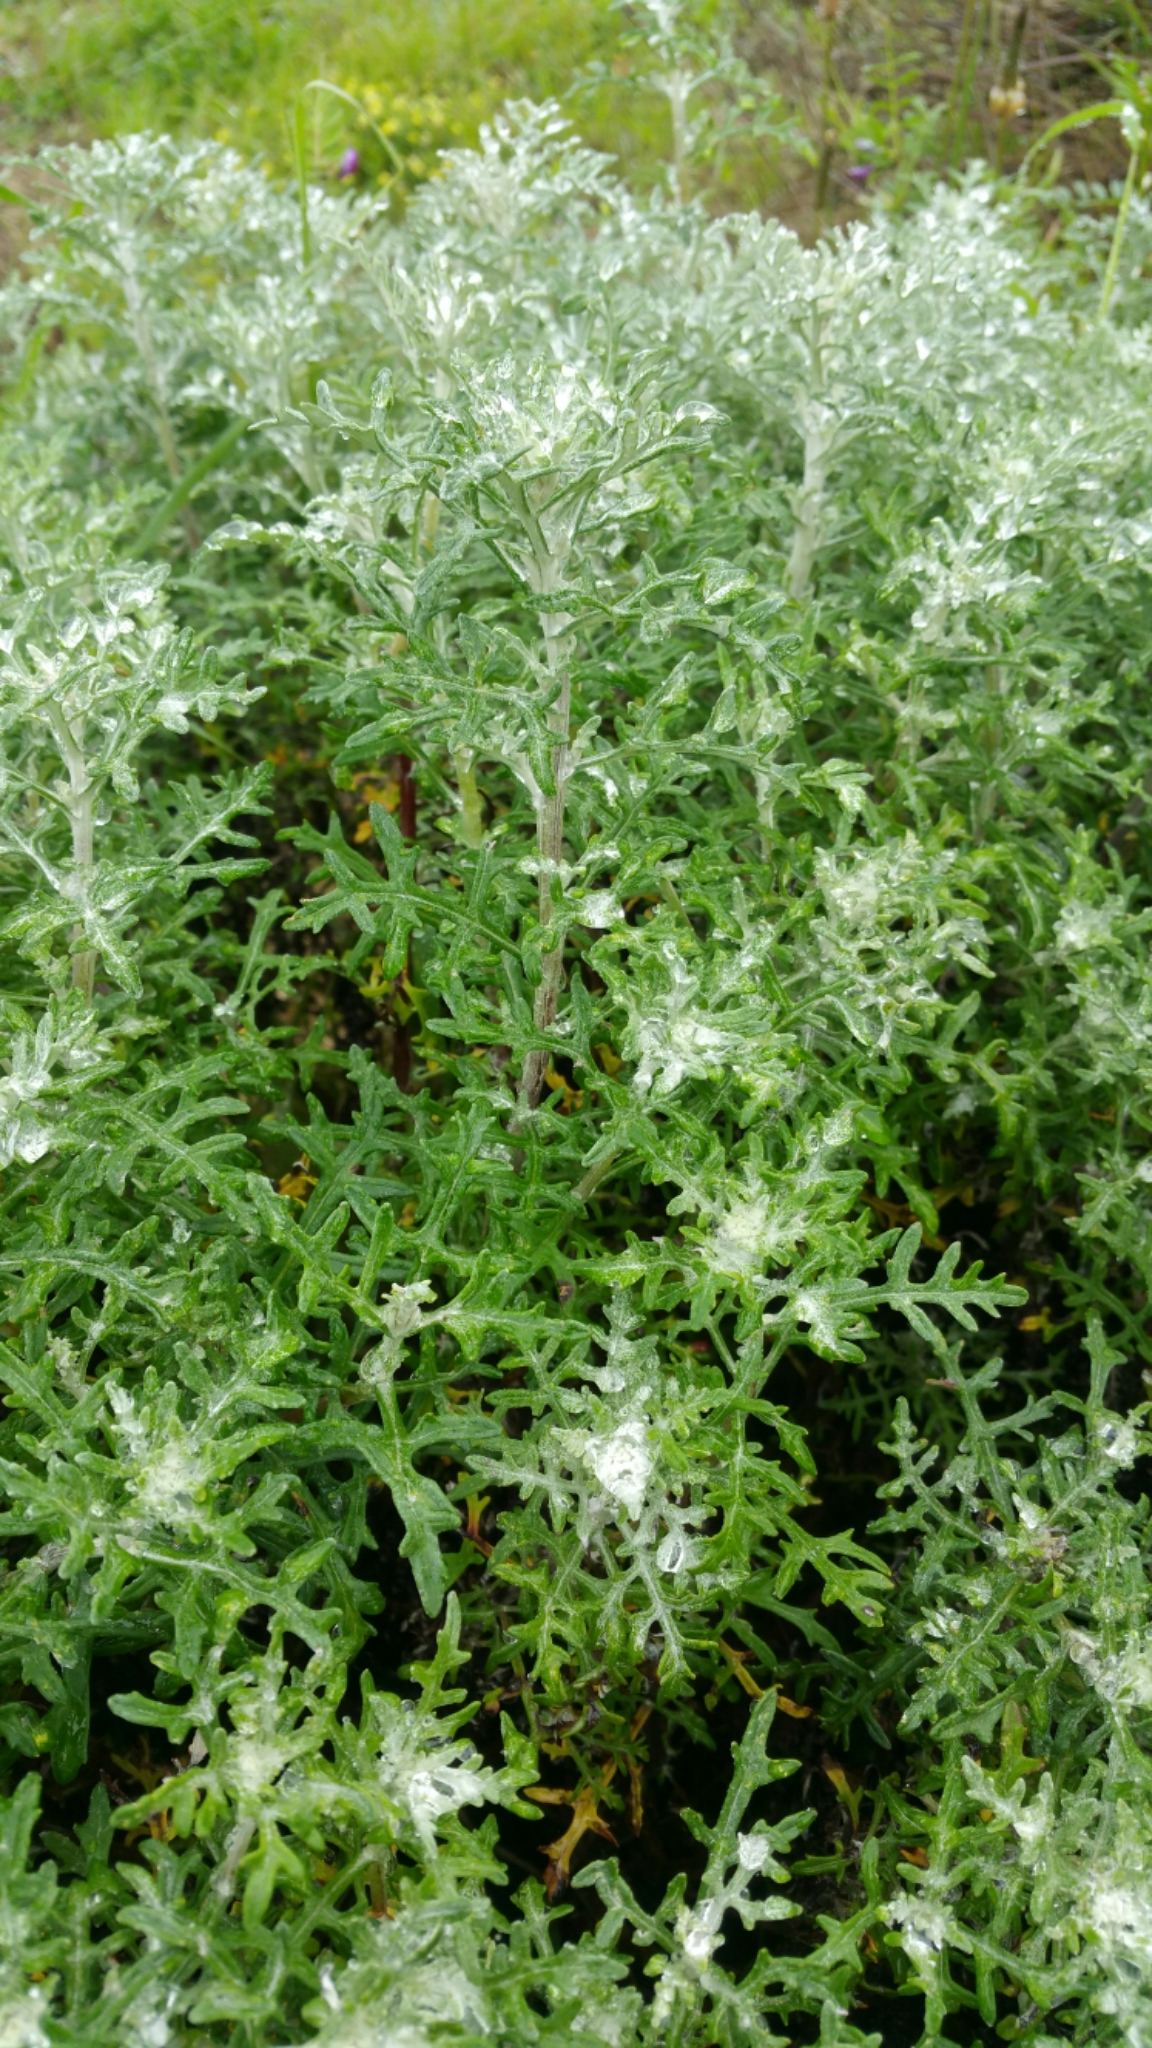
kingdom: Plantae
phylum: Tracheophyta
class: Magnoliopsida
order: Asterales
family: Asteraceae
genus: Eriophyllum
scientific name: Eriophyllum staechadifolium
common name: Lizardtail
